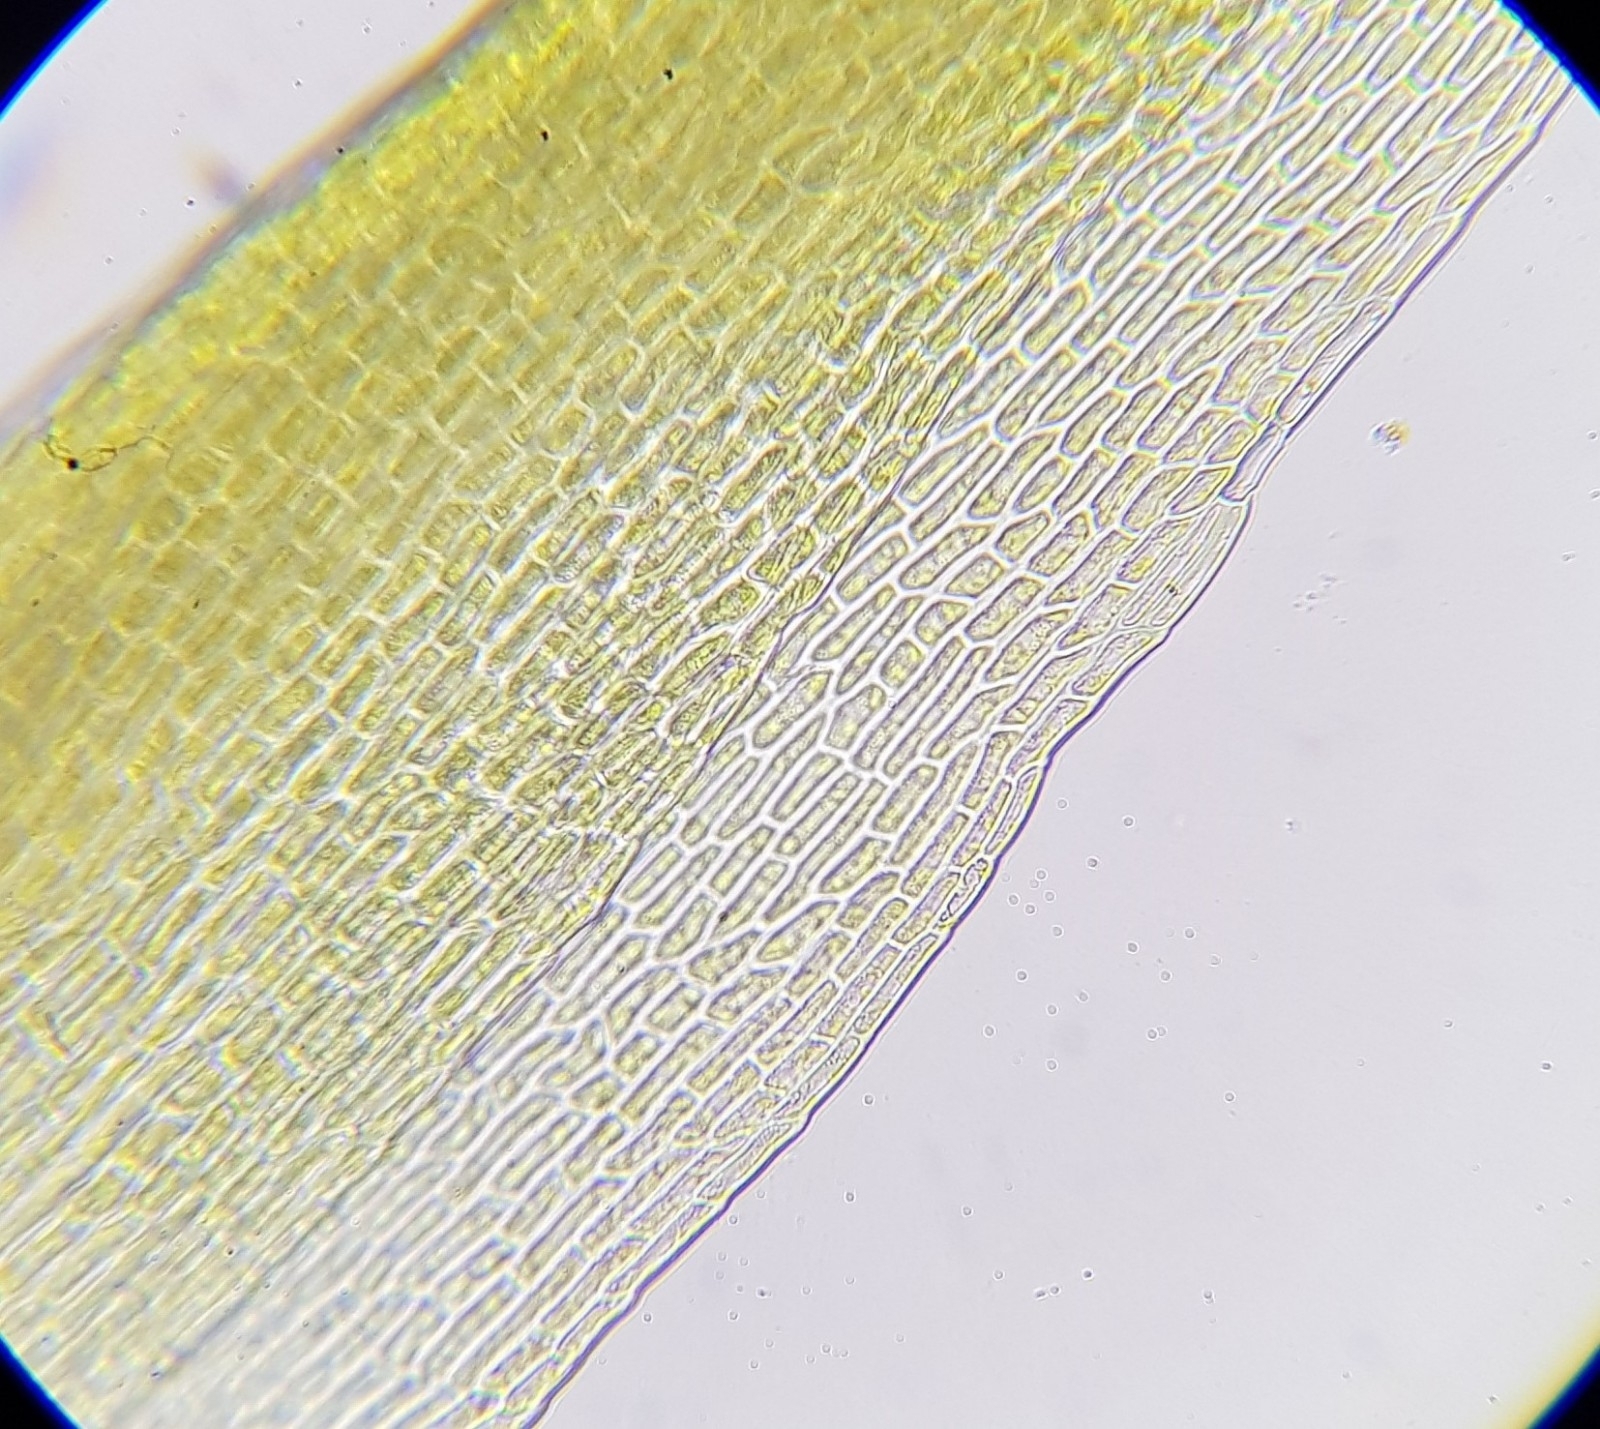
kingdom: Plantae
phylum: Bryophyta
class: Bryopsida
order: Grimmiales
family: Seligeriaceae
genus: Blindia
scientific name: Blindia acuta
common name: Sharp-leaved blind's moss
